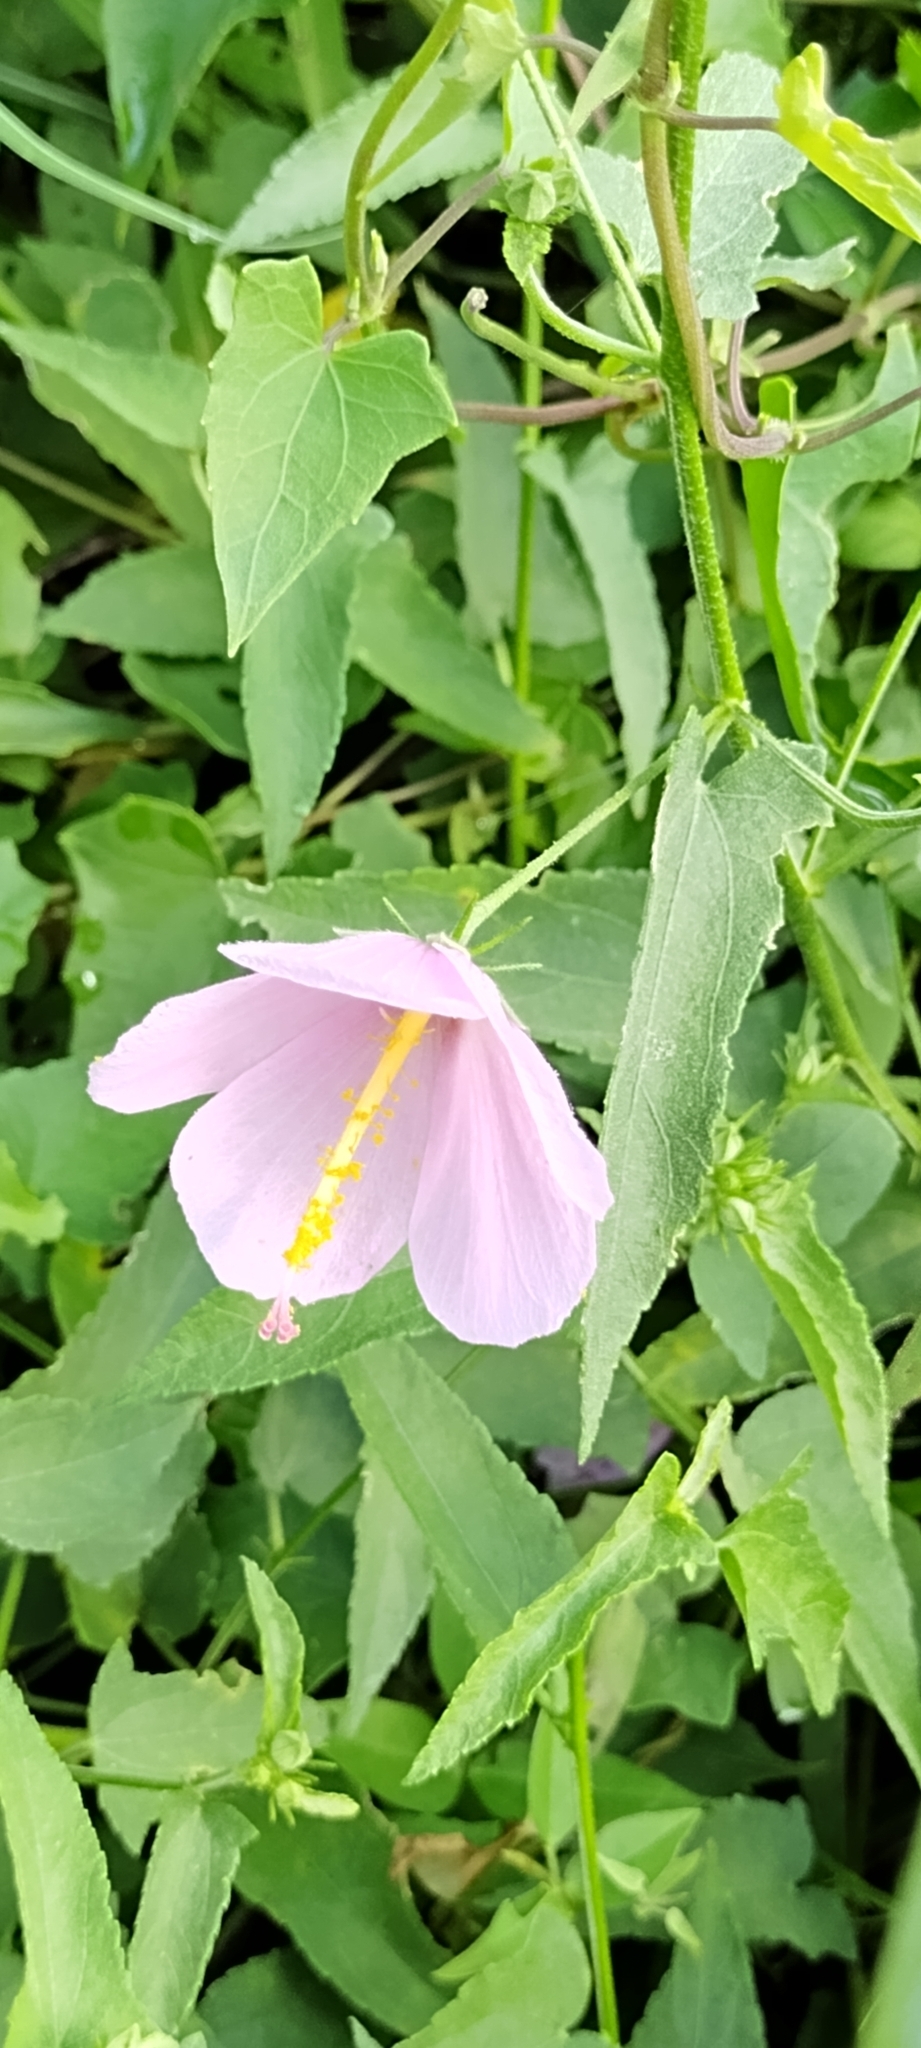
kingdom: Plantae
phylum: Tracheophyta
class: Magnoliopsida
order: Malvales
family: Malvaceae
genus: Kosteletzkya
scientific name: Kosteletzkya pentacarpos
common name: Virginia saltmarsh mallow
